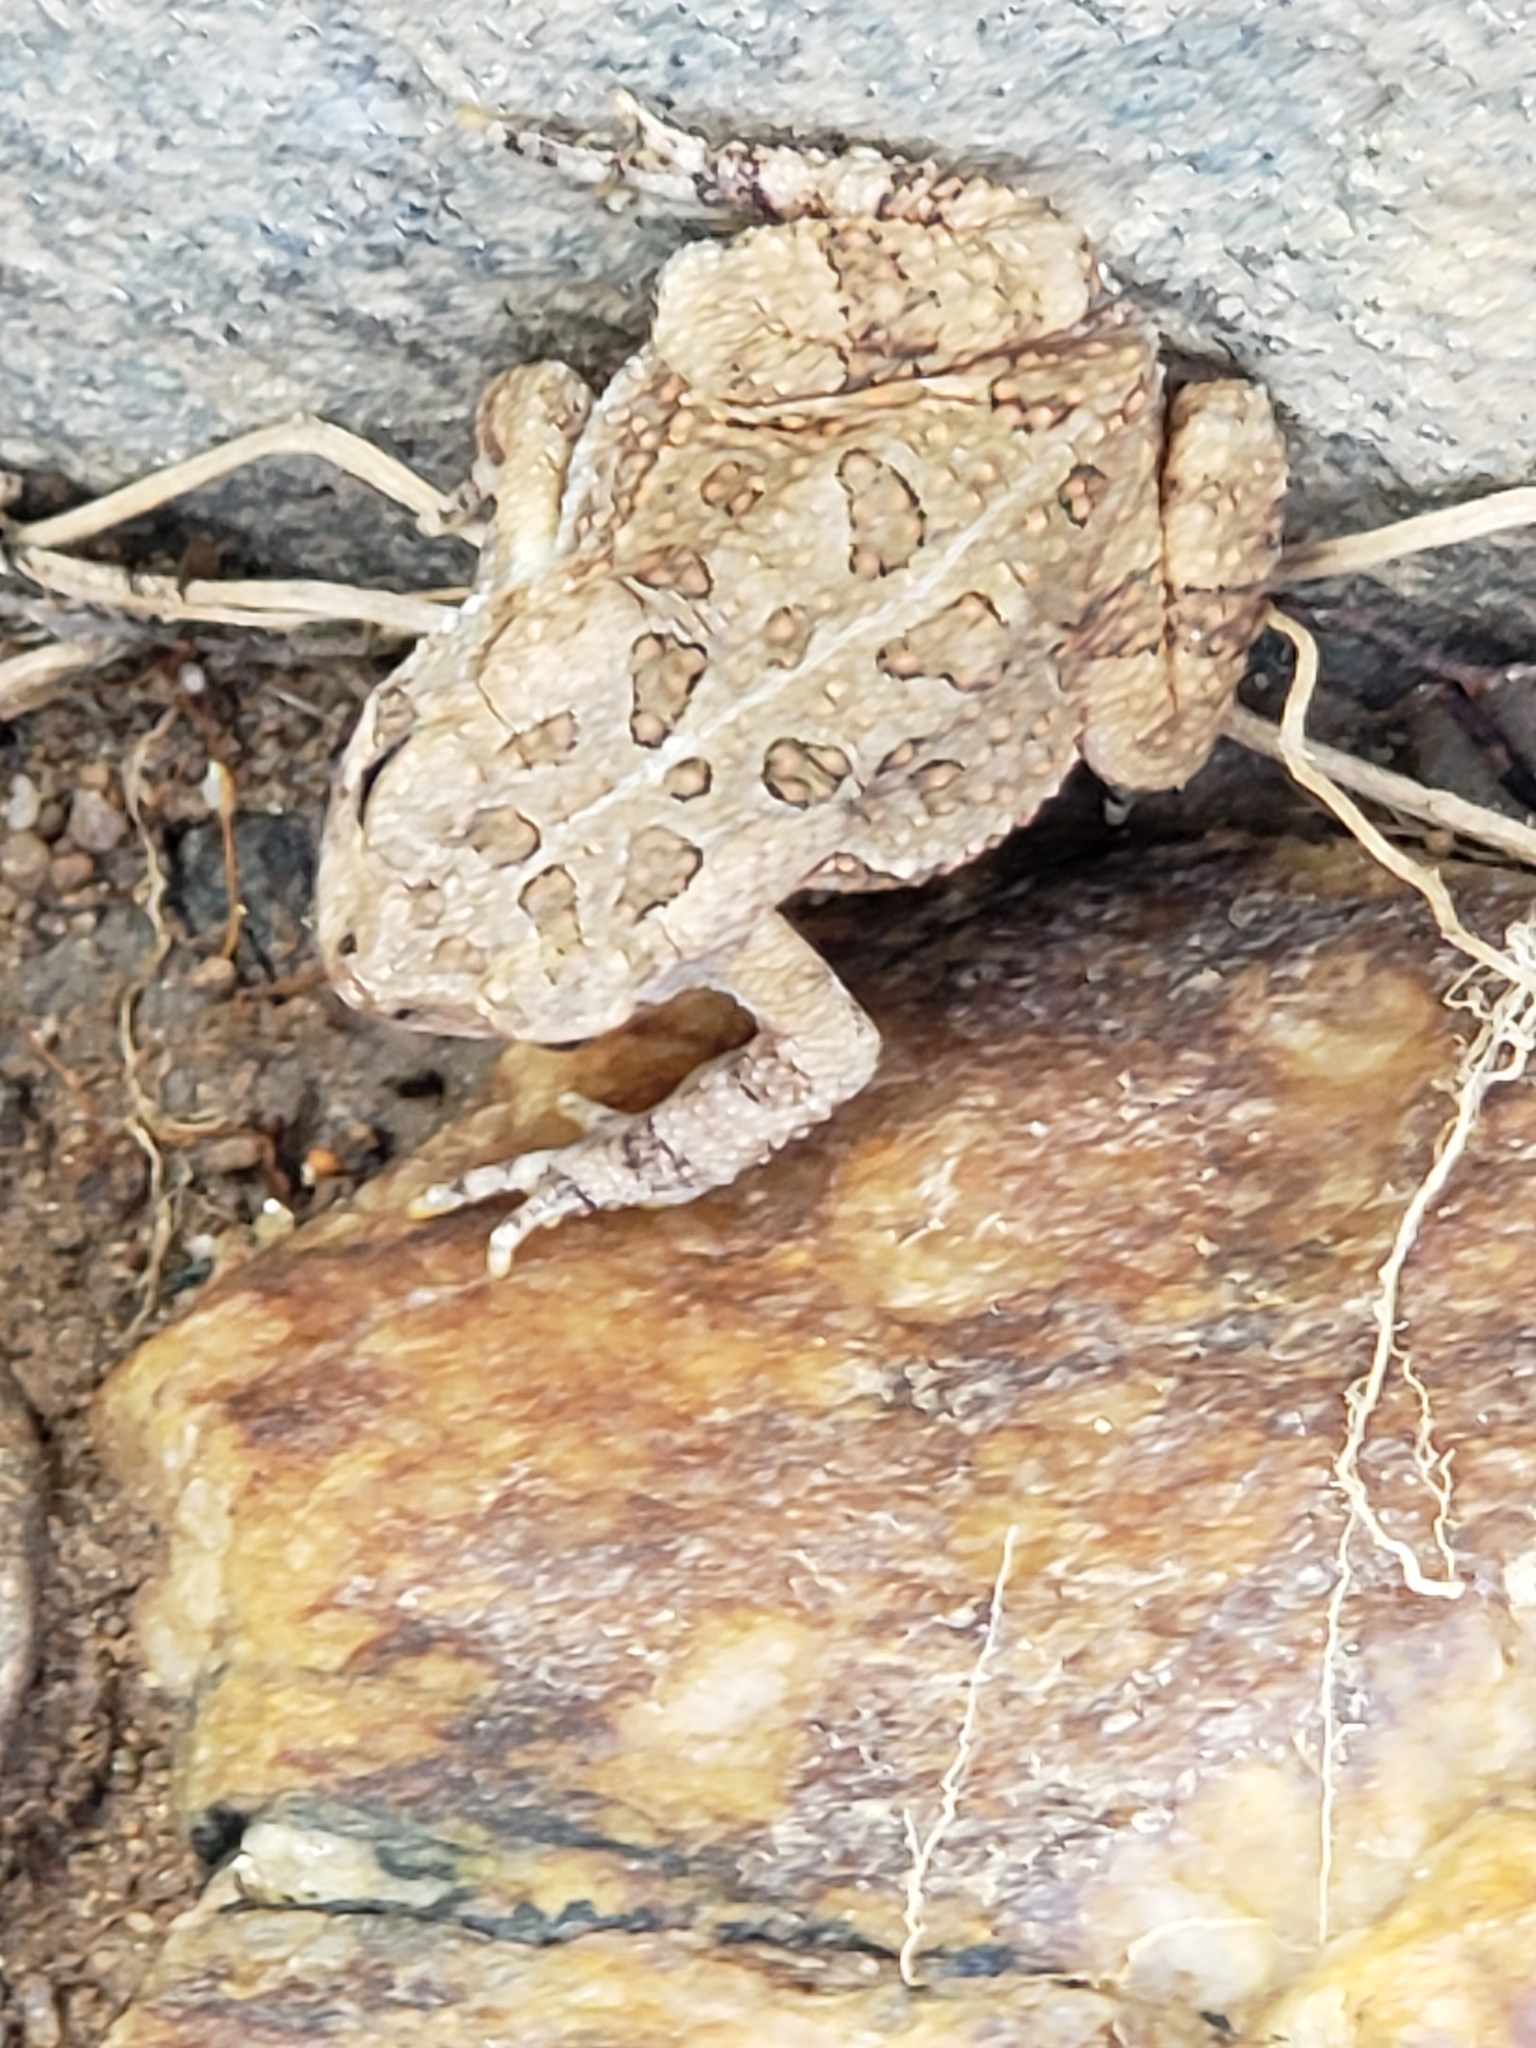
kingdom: Animalia
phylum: Chordata
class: Amphibia
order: Anura
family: Bufonidae
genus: Anaxyrus
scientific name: Anaxyrus fowleri
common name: Fowler's toad
